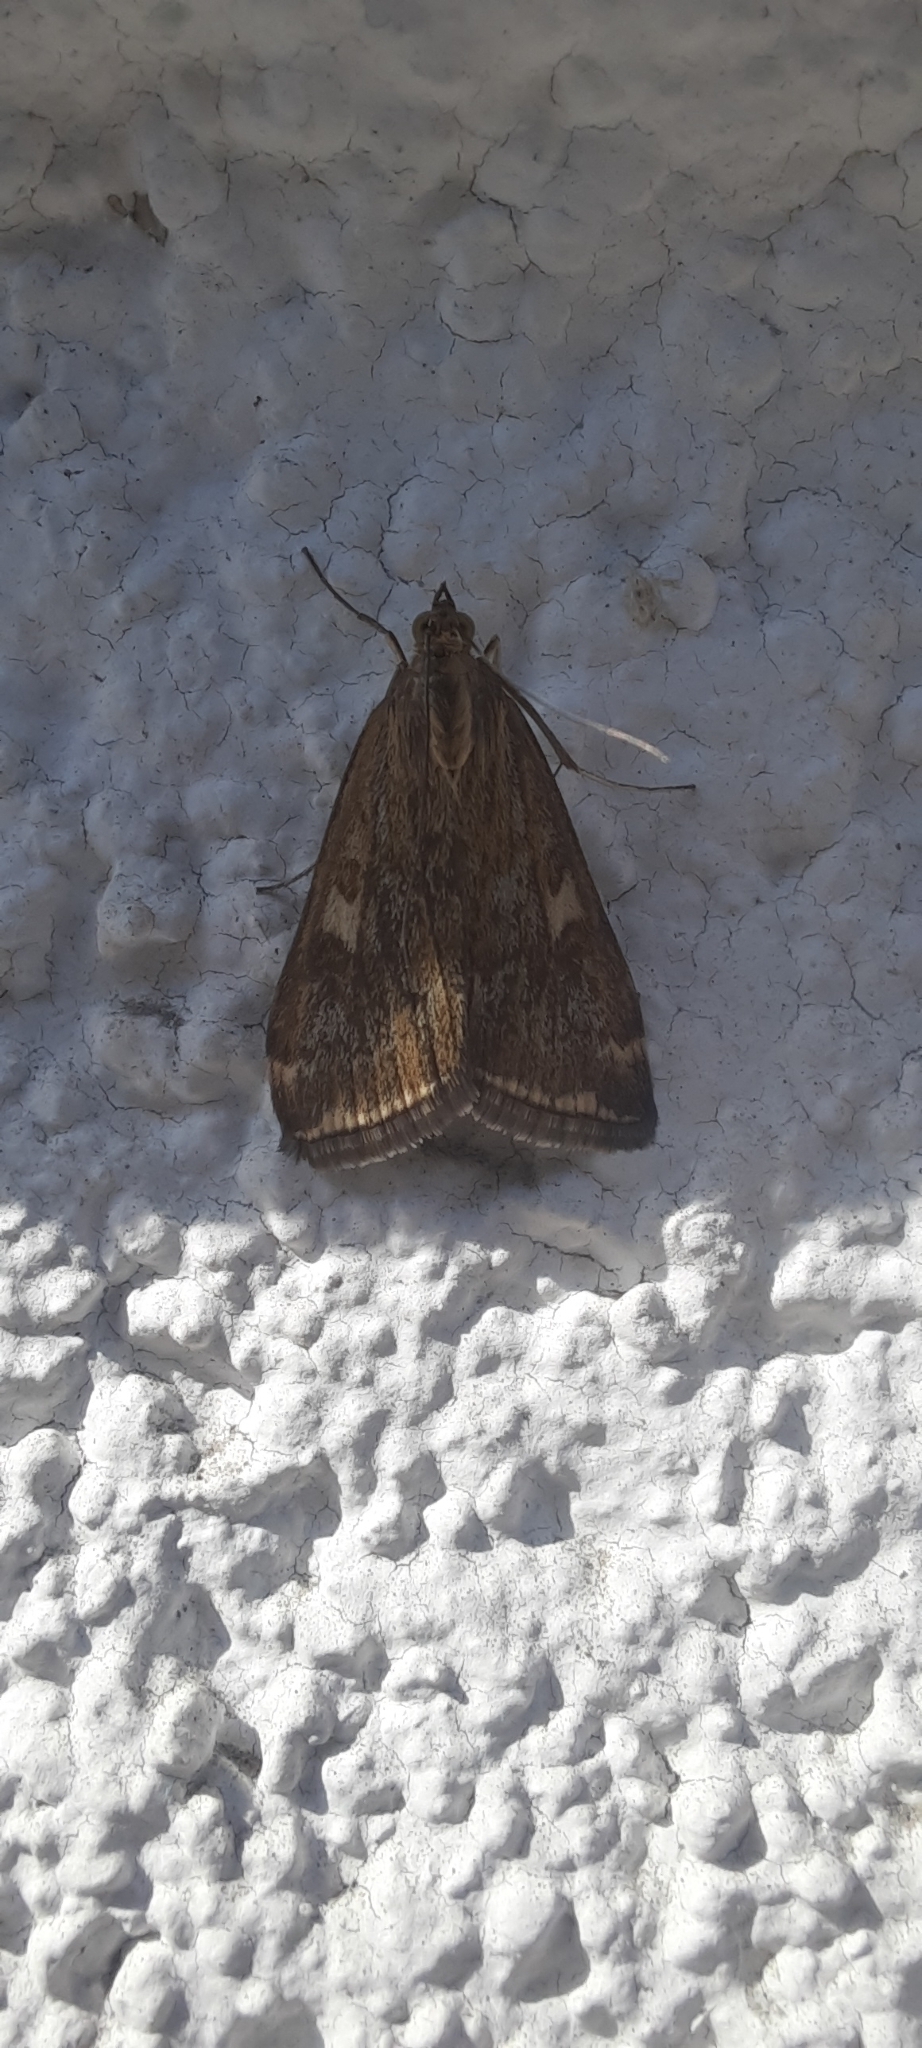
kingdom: Animalia
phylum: Arthropoda
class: Insecta
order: Lepidoptera
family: Crambidae
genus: Loxostege
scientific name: Loxostege sticticalis
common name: Crambid moth
